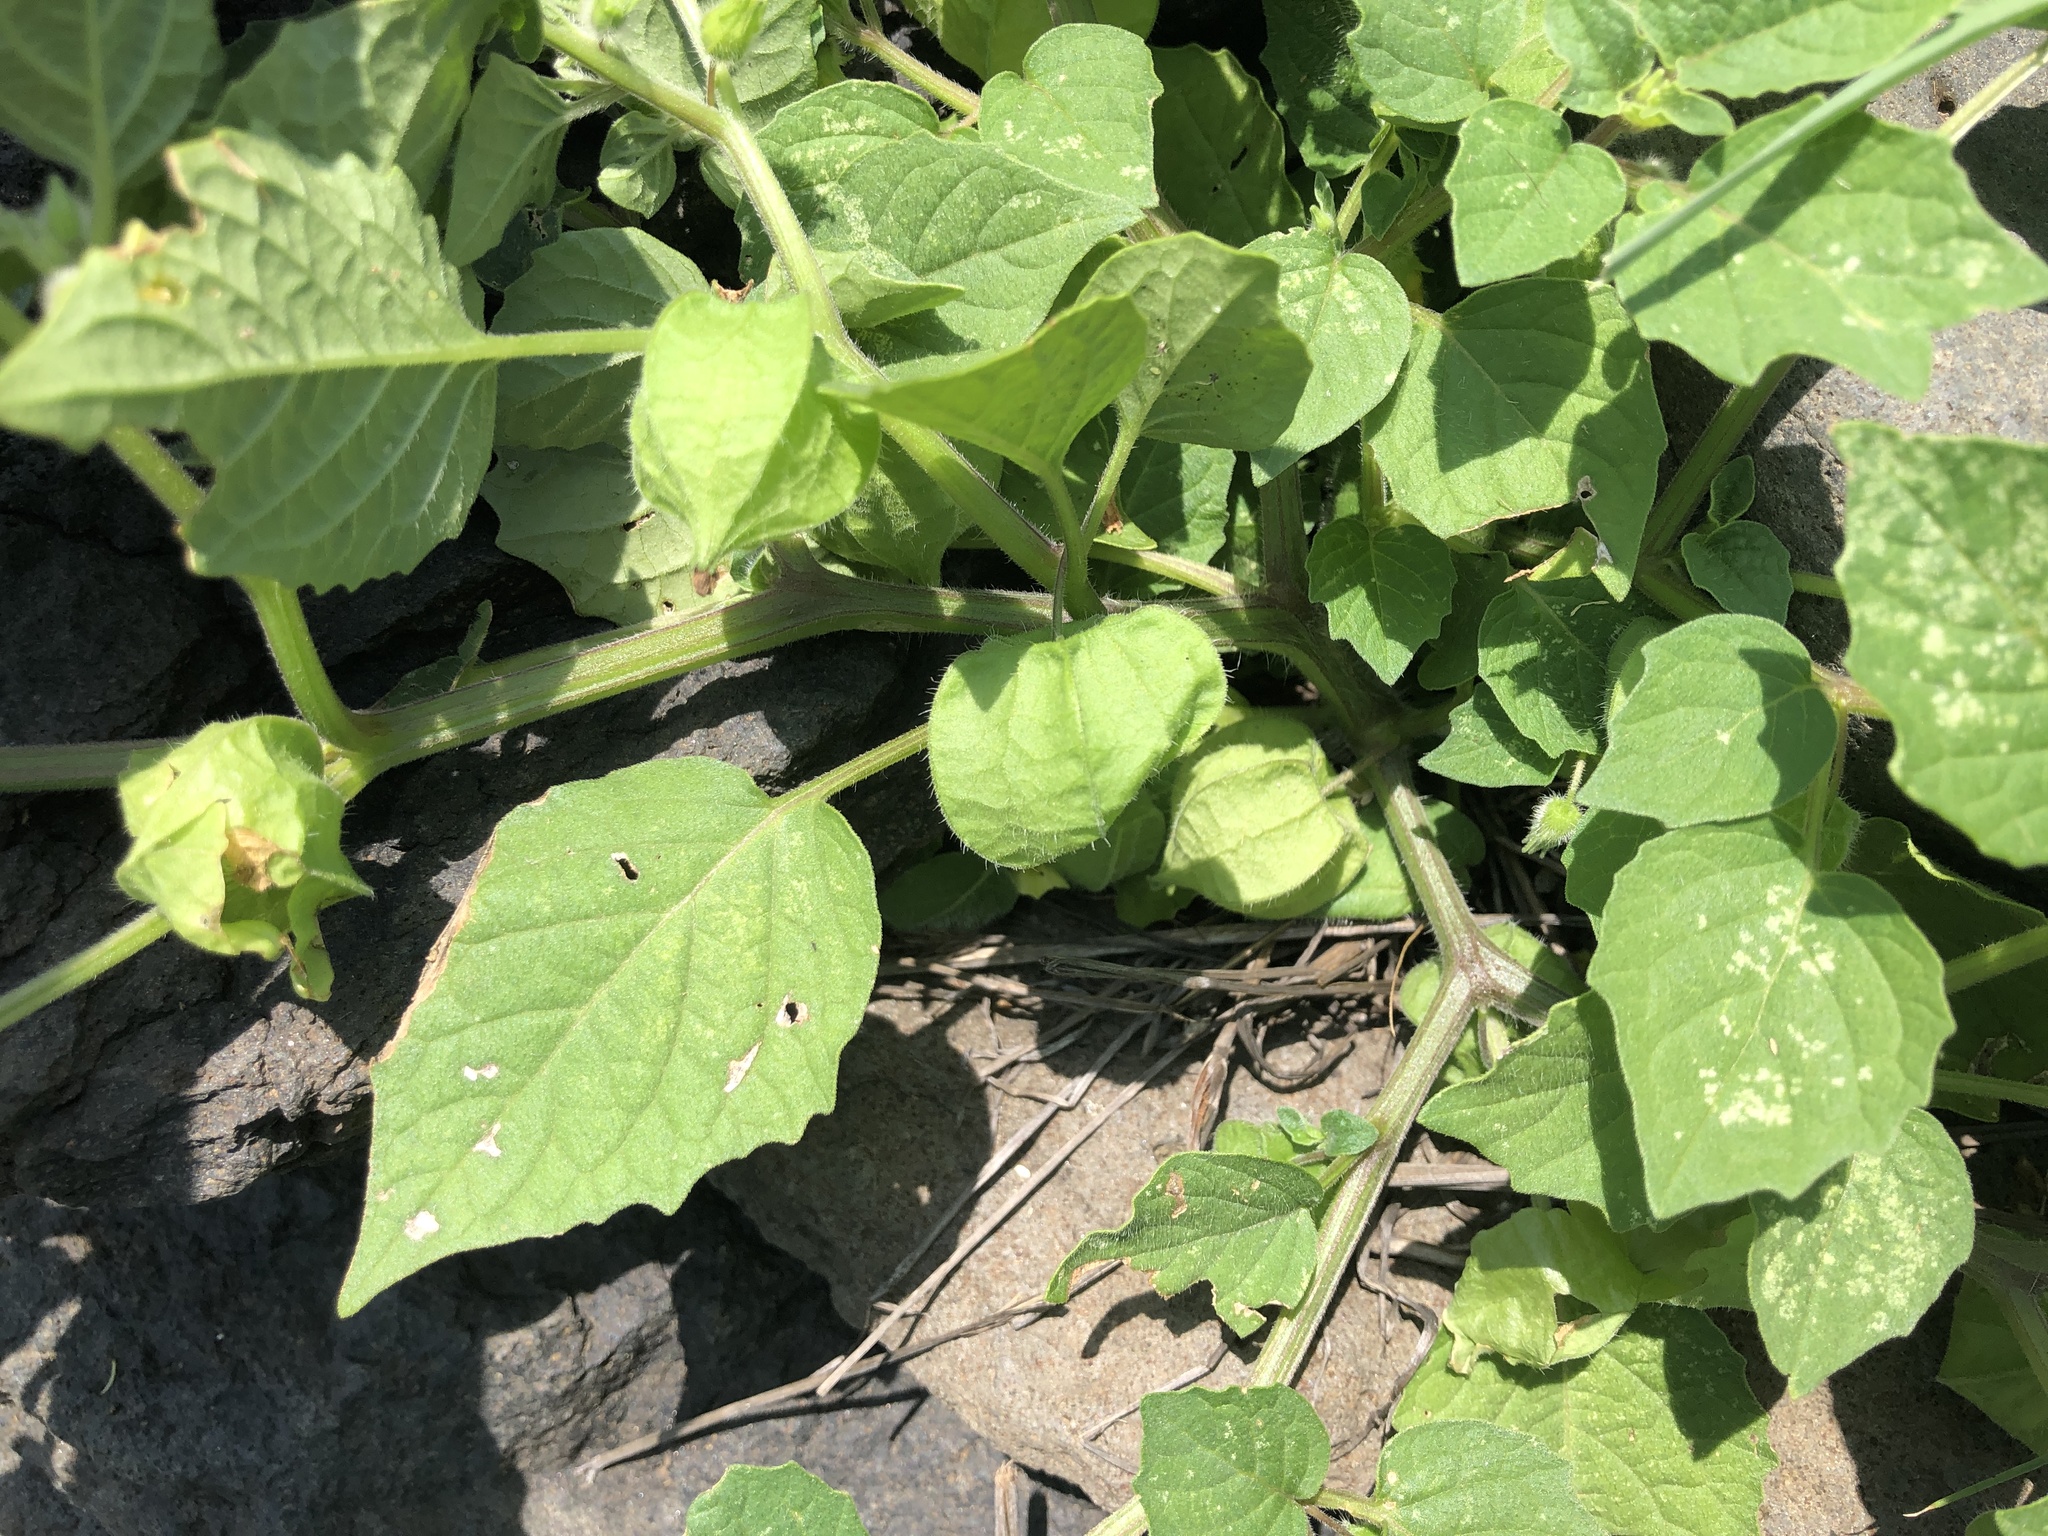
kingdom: Plantae
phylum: Tracheophyta
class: Magnoliopsida
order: Solanales
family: Solanaceae
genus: Physalis
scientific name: Physalis angulata
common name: Angular winter-cherry
